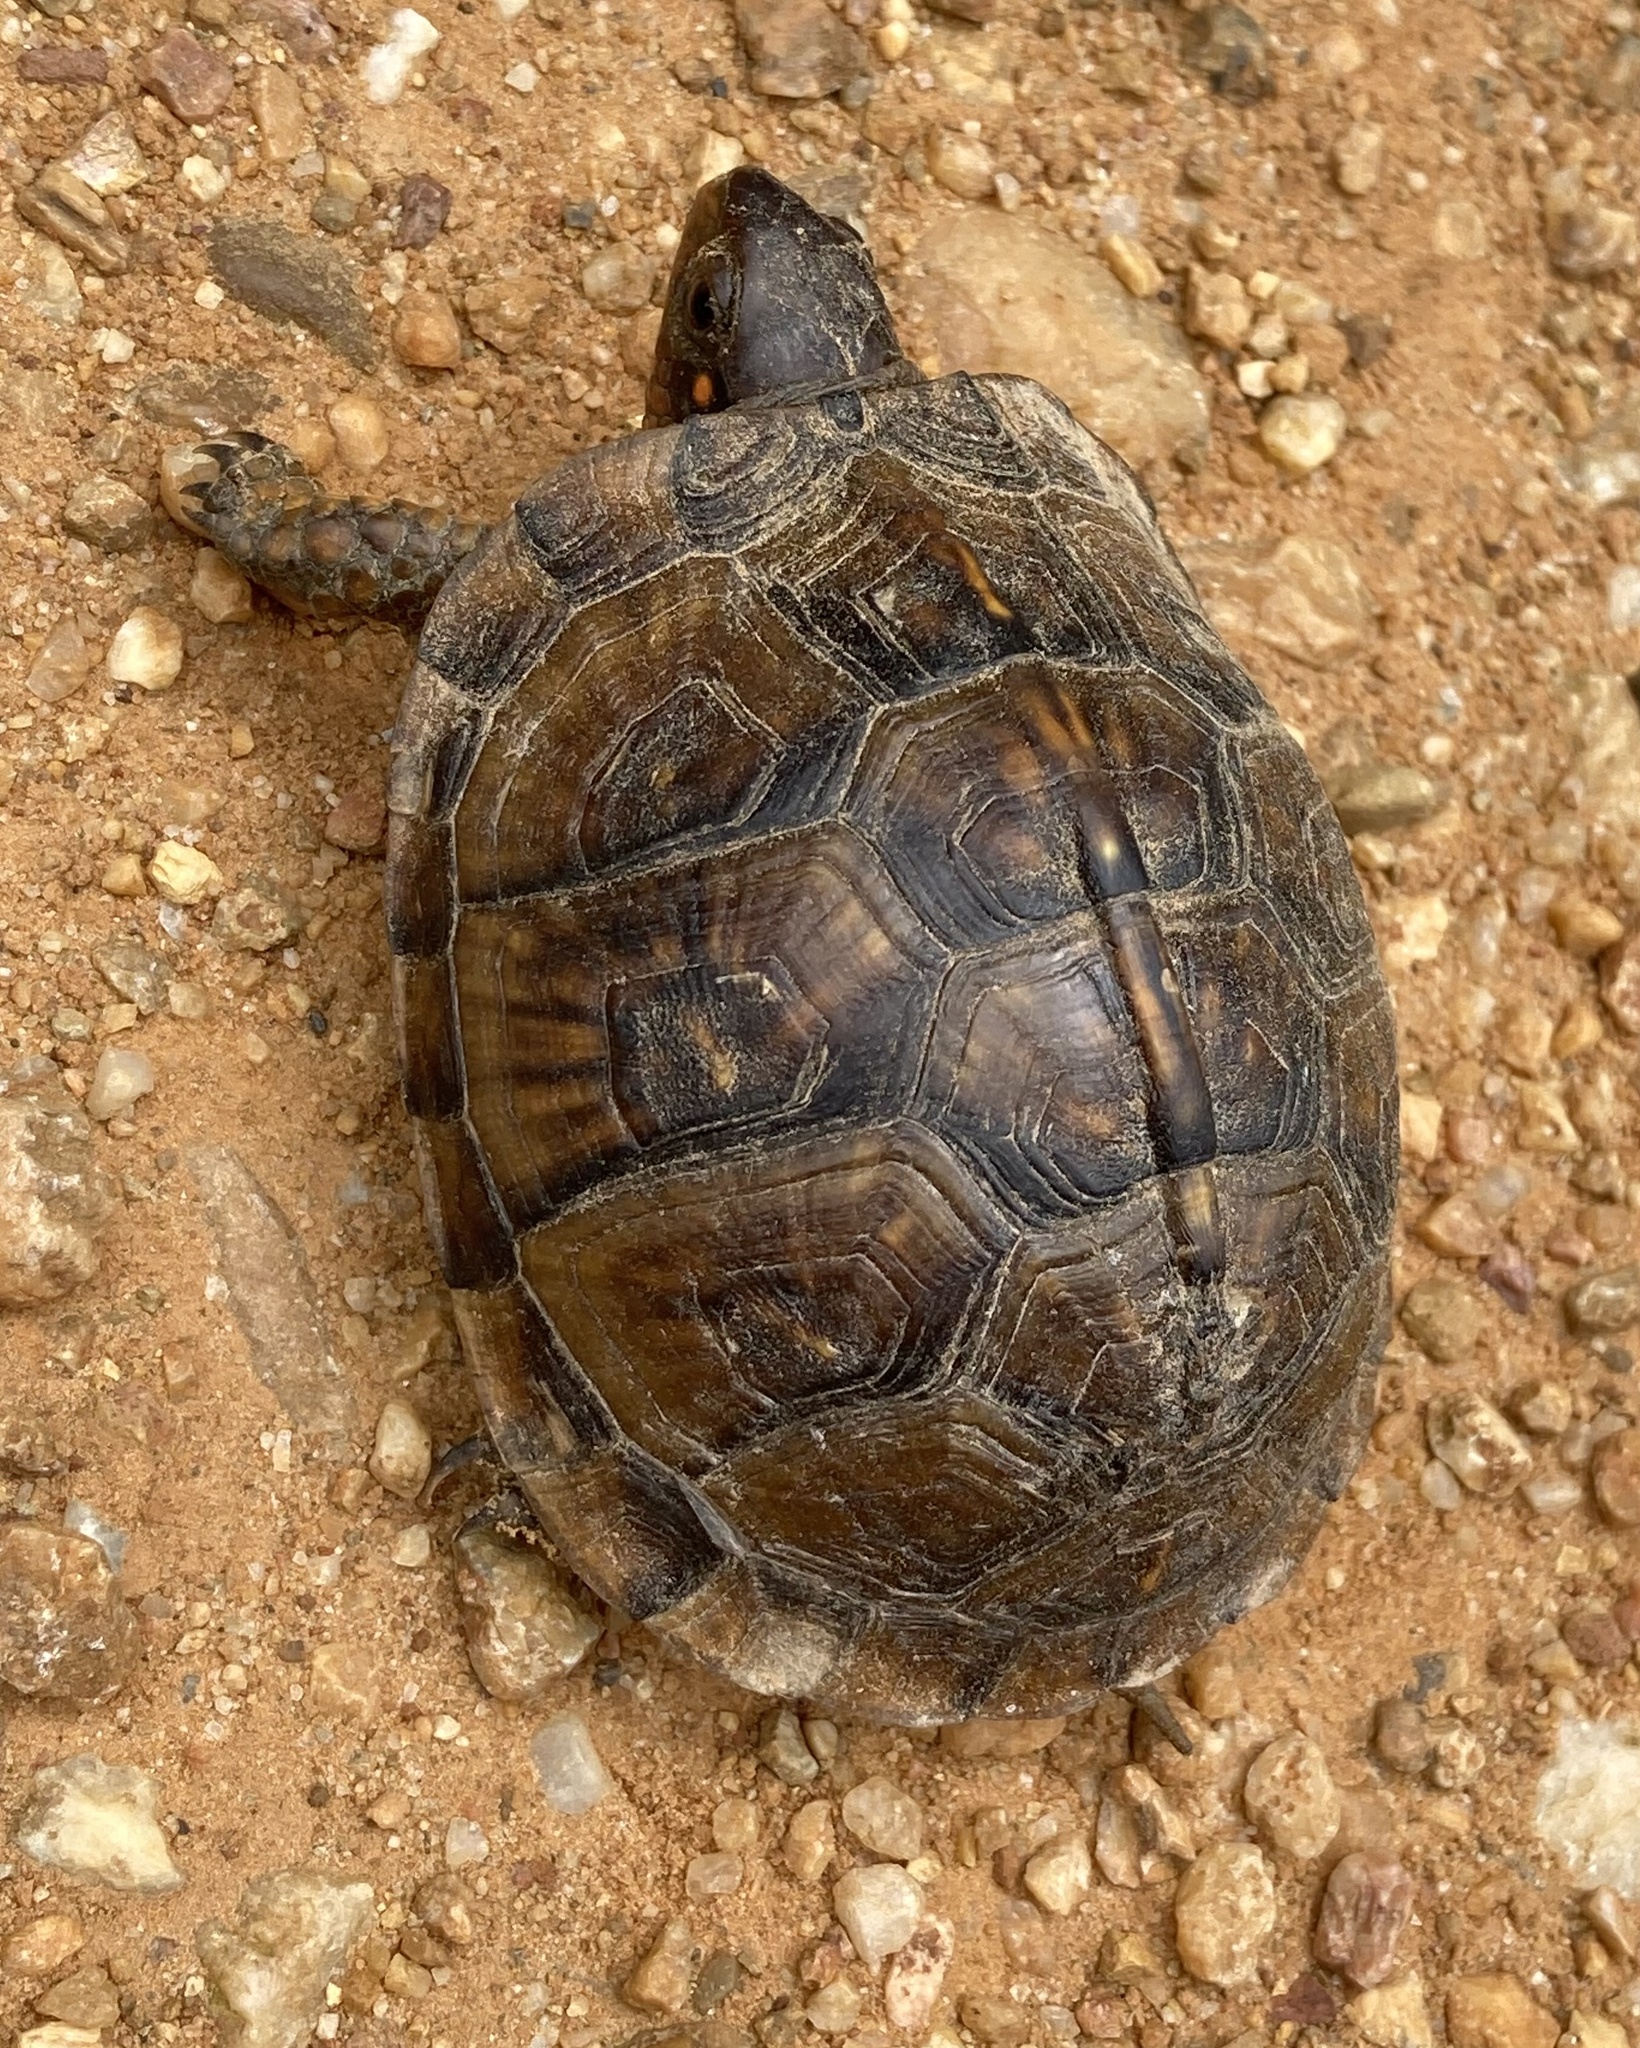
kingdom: Animalia
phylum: Chordata
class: Testudines
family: Emydidae
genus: Terrapene
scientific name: Terrapene carolina
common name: Common box turtle
